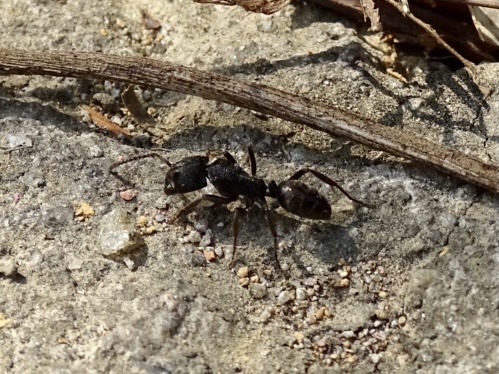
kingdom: Animalia
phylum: Arthropoda
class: Insecta
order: Hymenoptera
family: Formicidae
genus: Odontoponera
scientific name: Odontoponera denticulata
